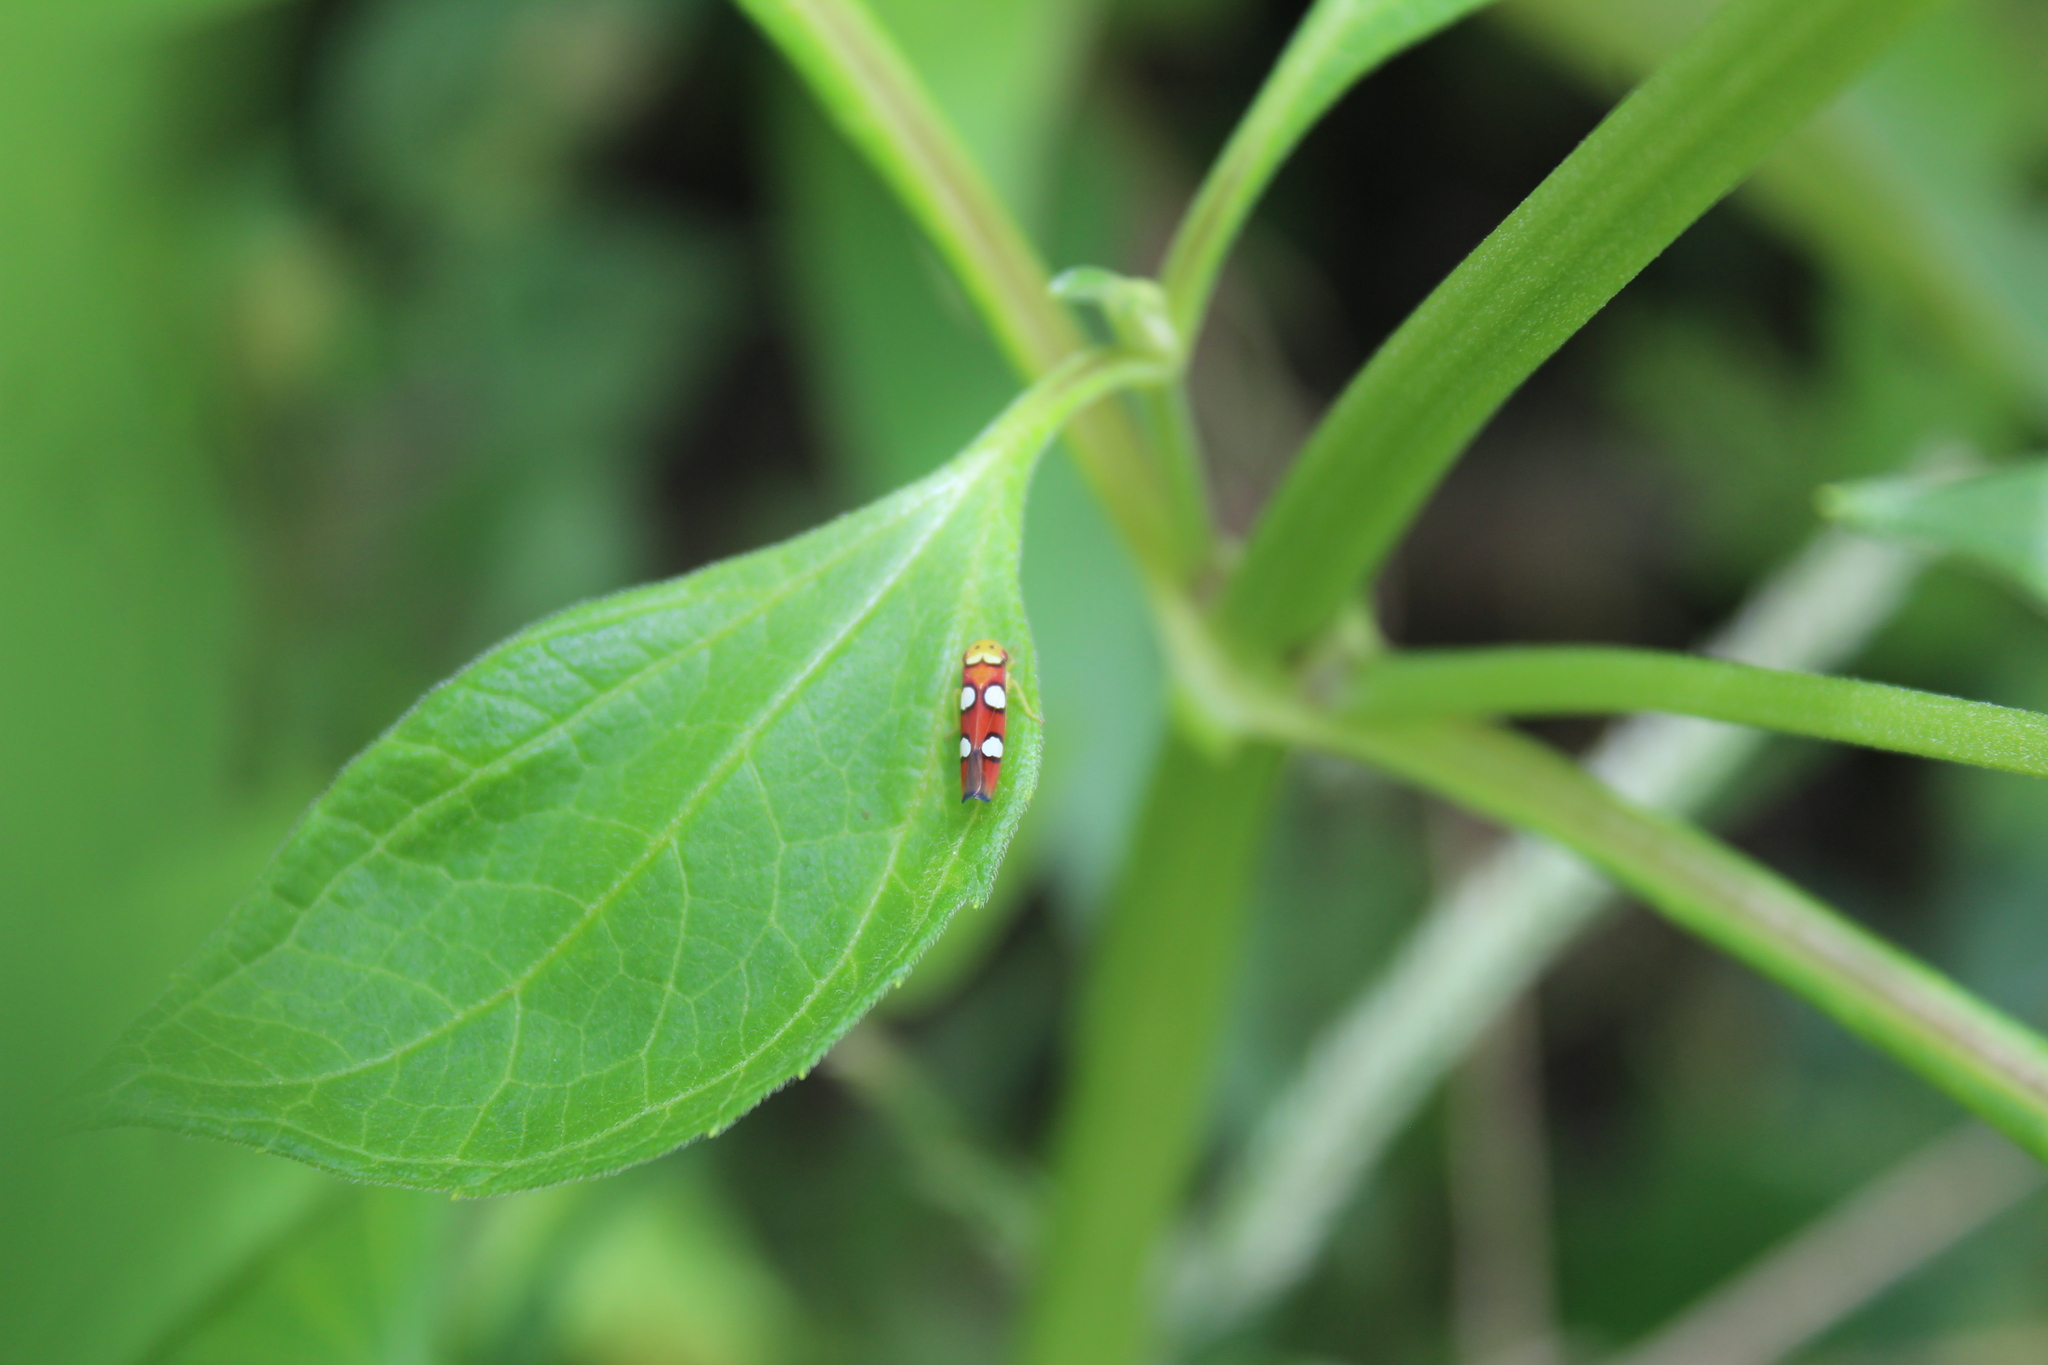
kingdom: Animalia
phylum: Arthropoda
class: Insecta
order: Hemiptera
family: Cicadellidae
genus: Erythrogonia
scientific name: Erythrogonia laudata
